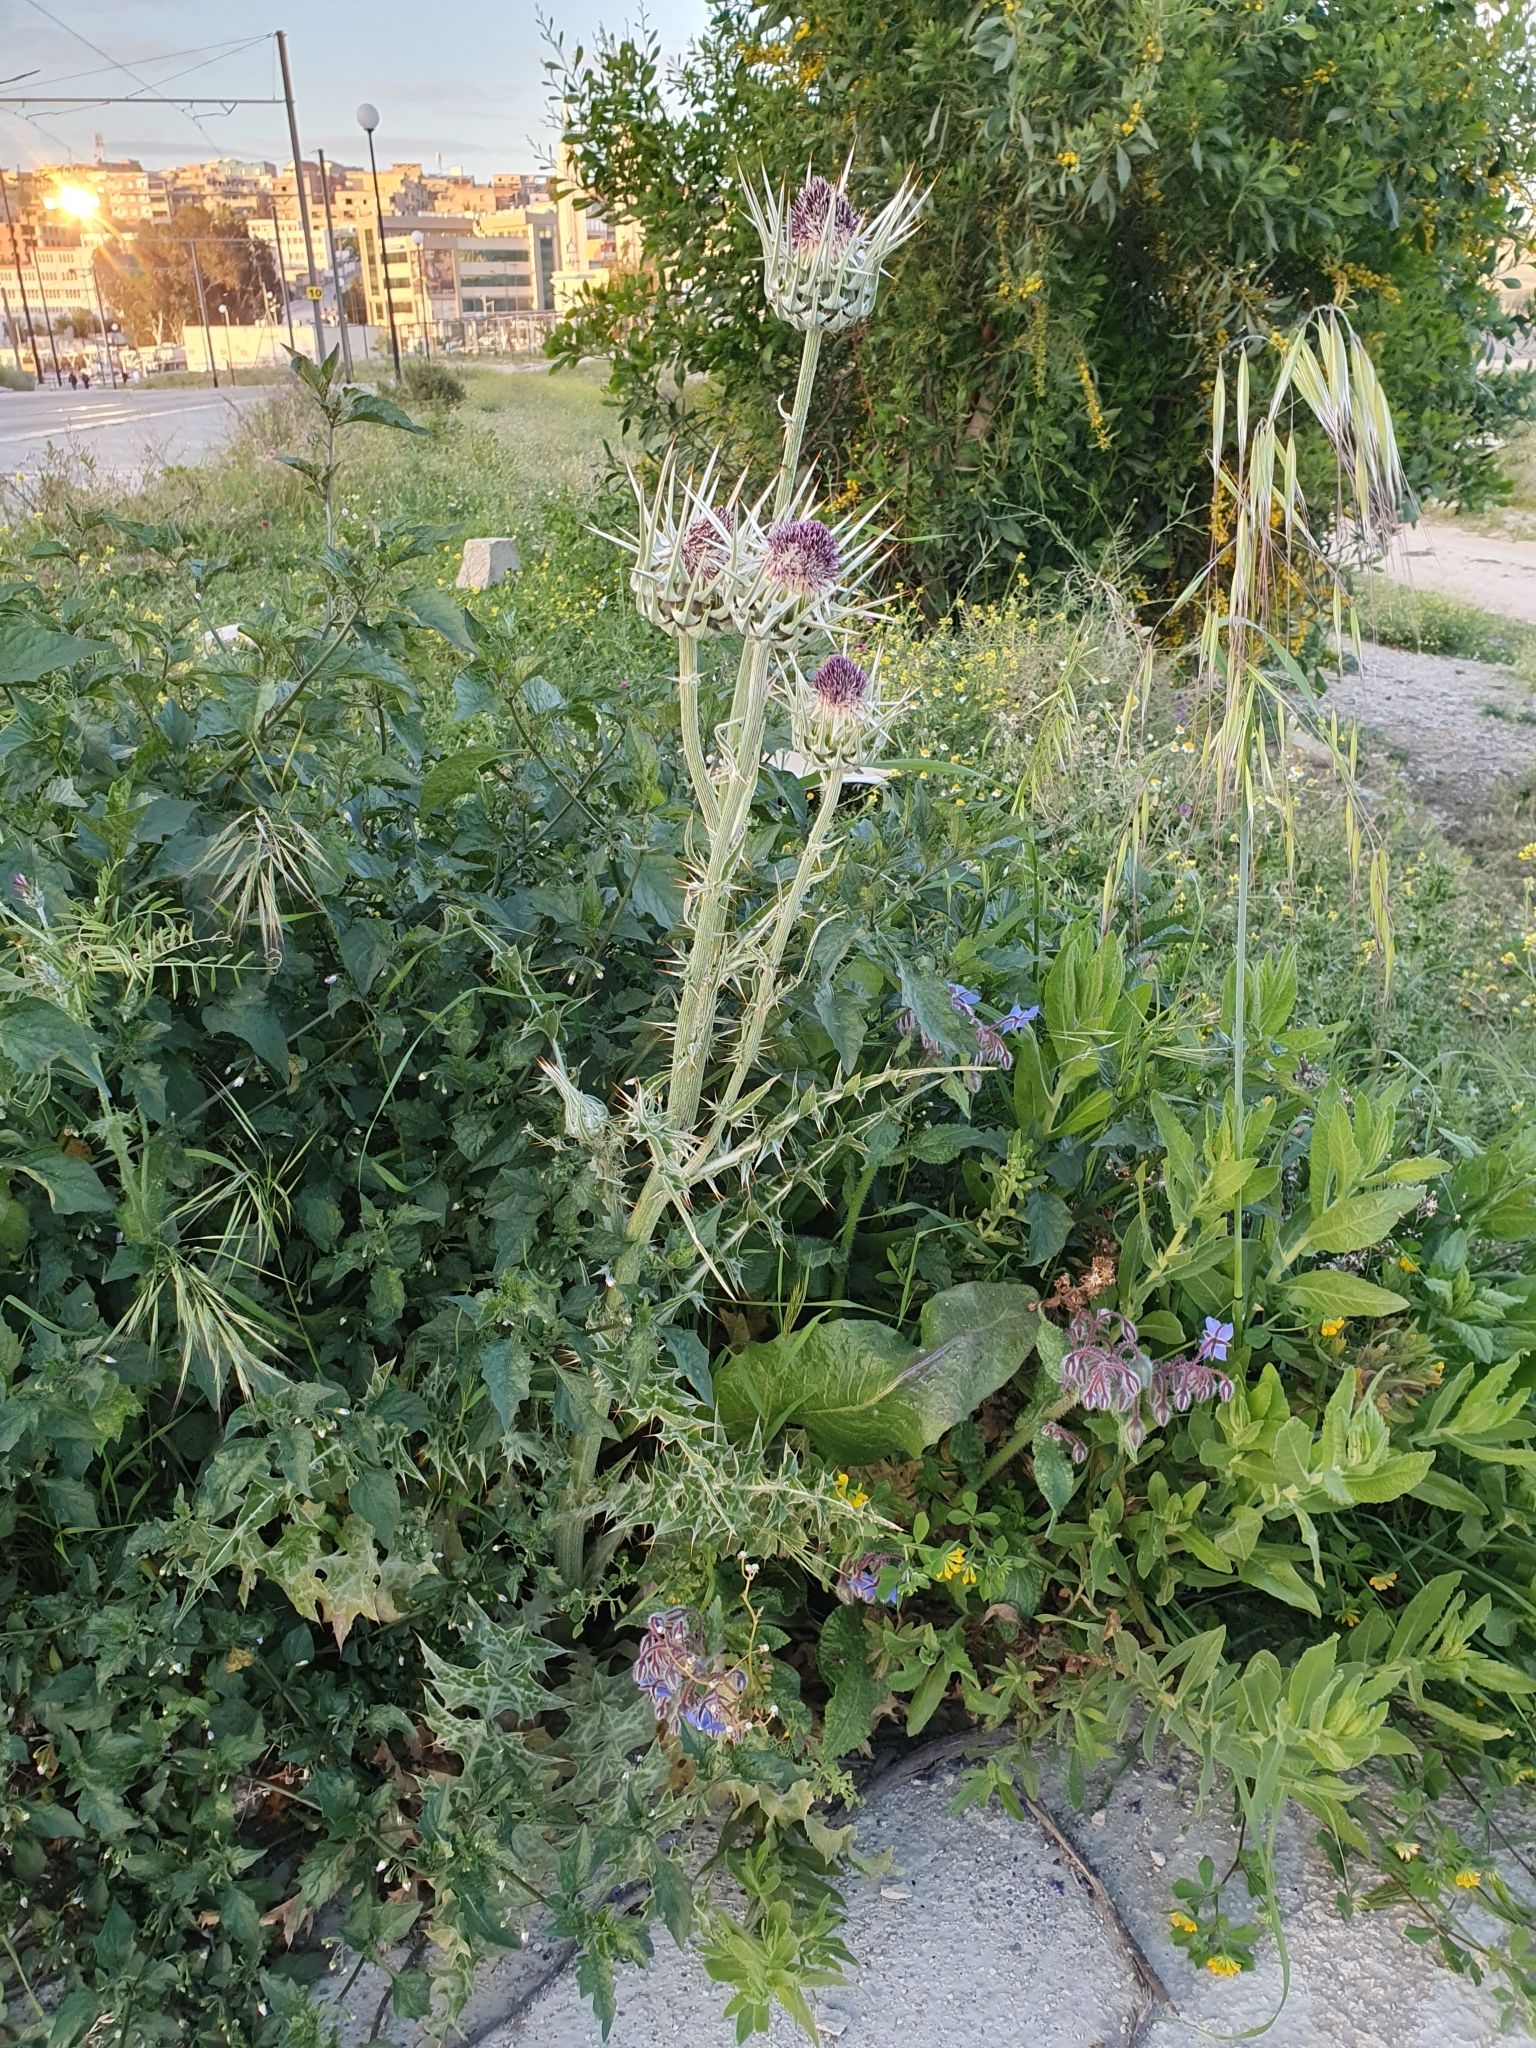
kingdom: Plantae
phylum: Tracheophyta
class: Magnoliopsida
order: Asterales
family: Asteraceae
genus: Silybum
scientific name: Silybum eburneum
